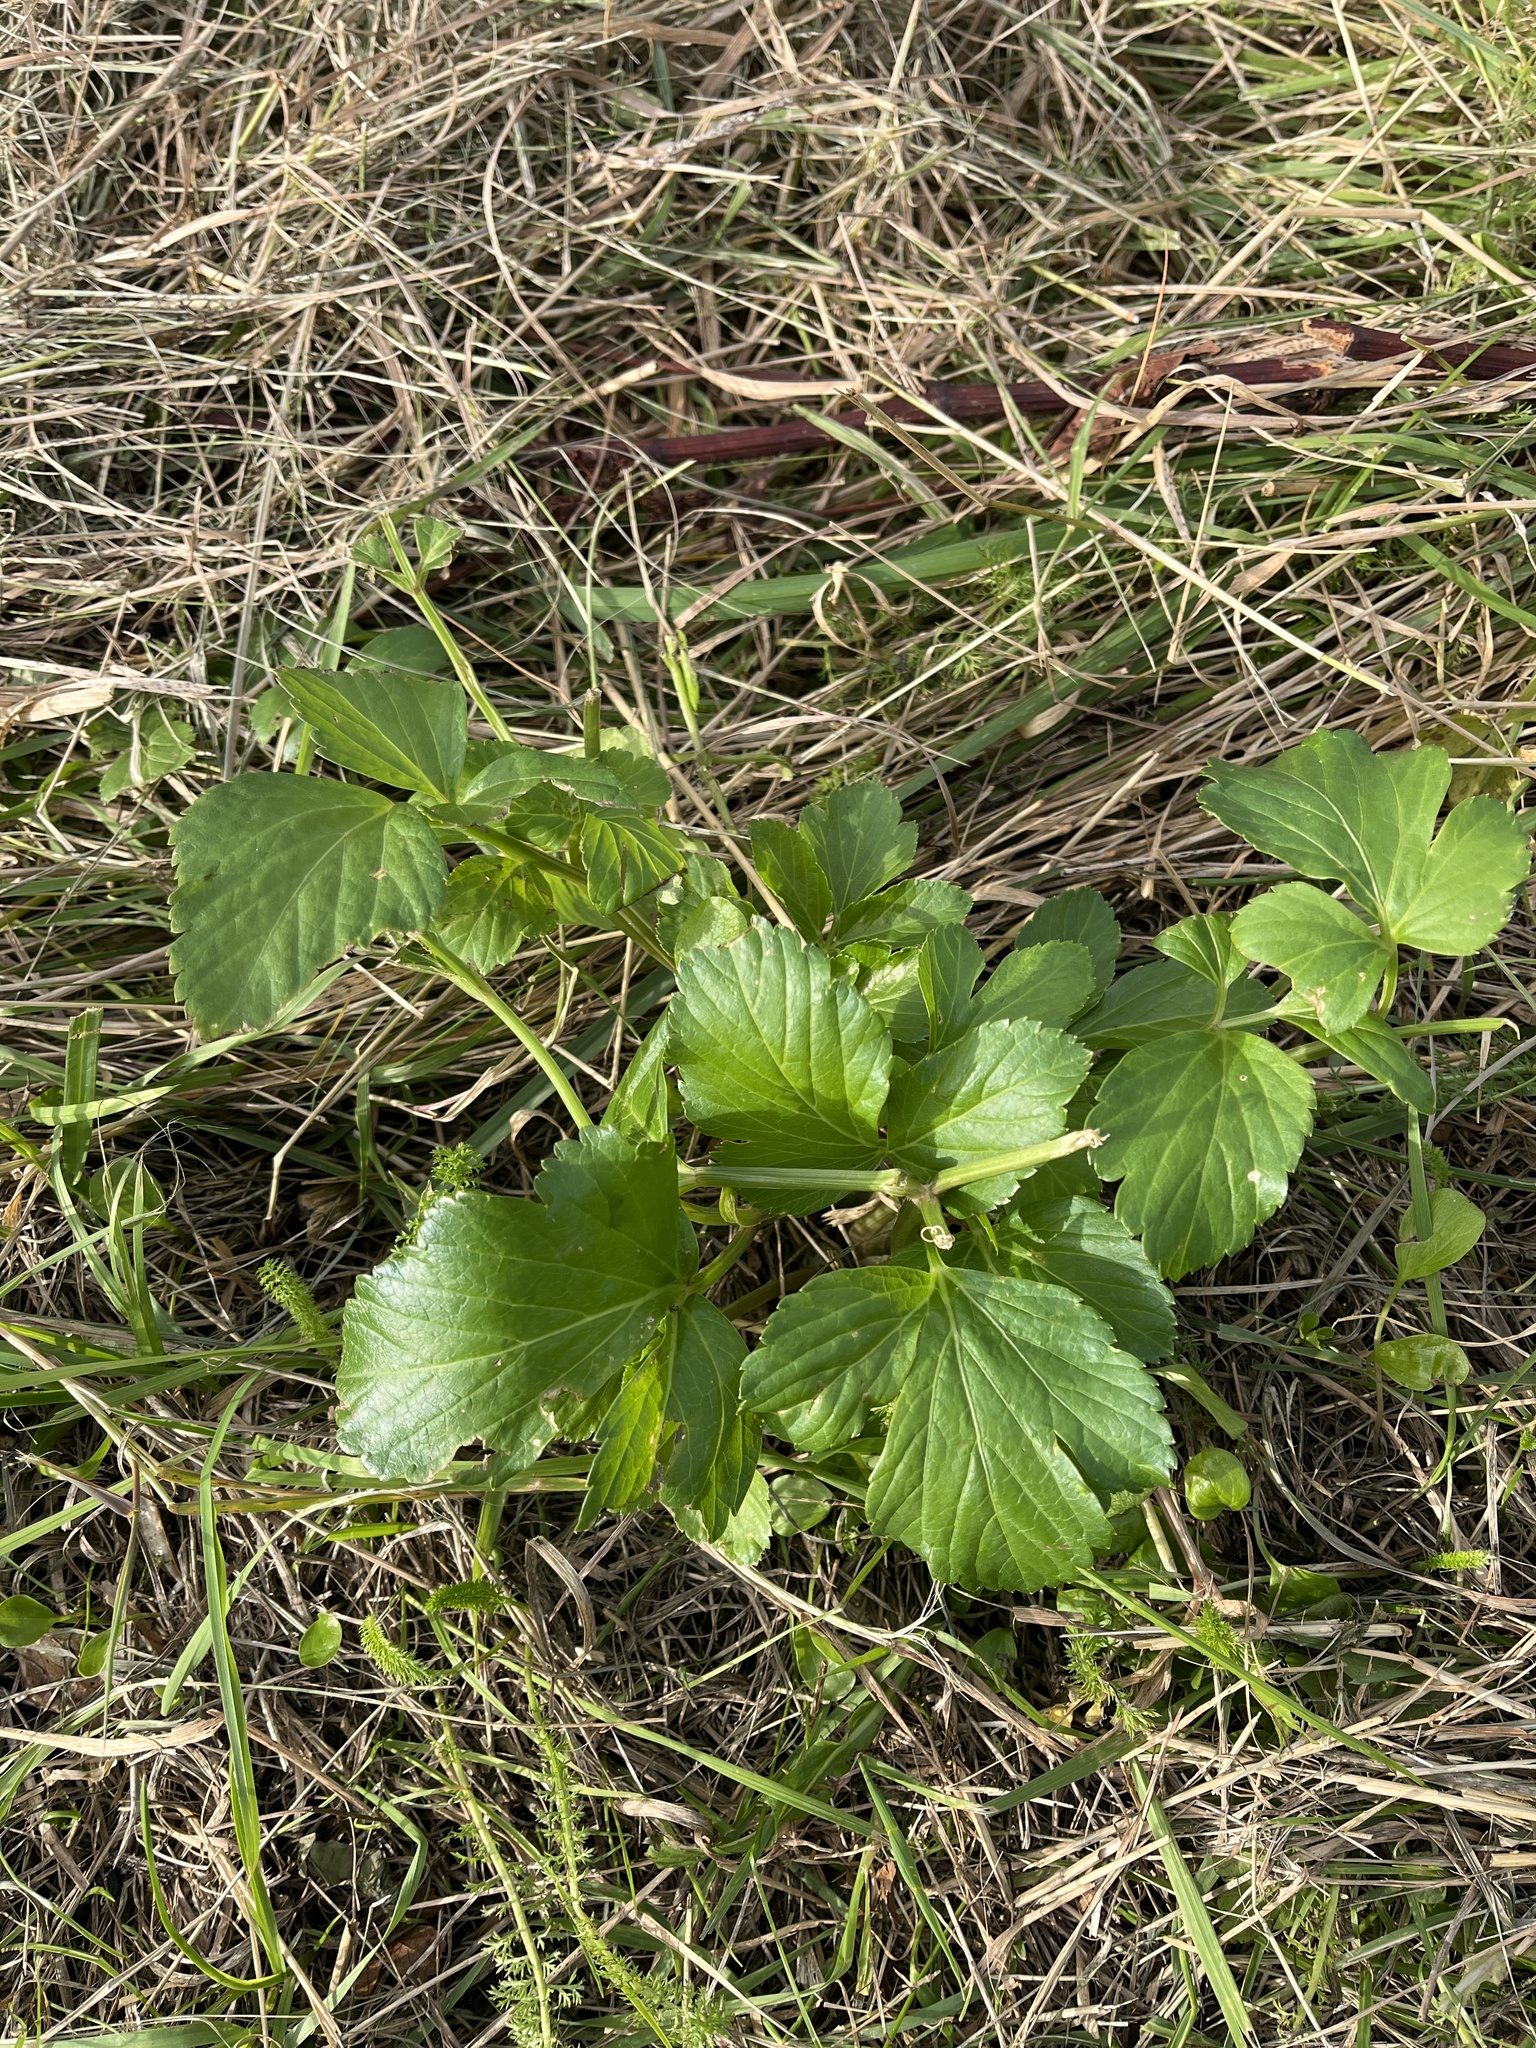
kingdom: Plantae
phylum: Tracheophyta
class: Magnoliopsida
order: Apiales
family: Apiaceae
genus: Smyrnium
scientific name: Smyrnium olusatrum
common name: Alexanders
